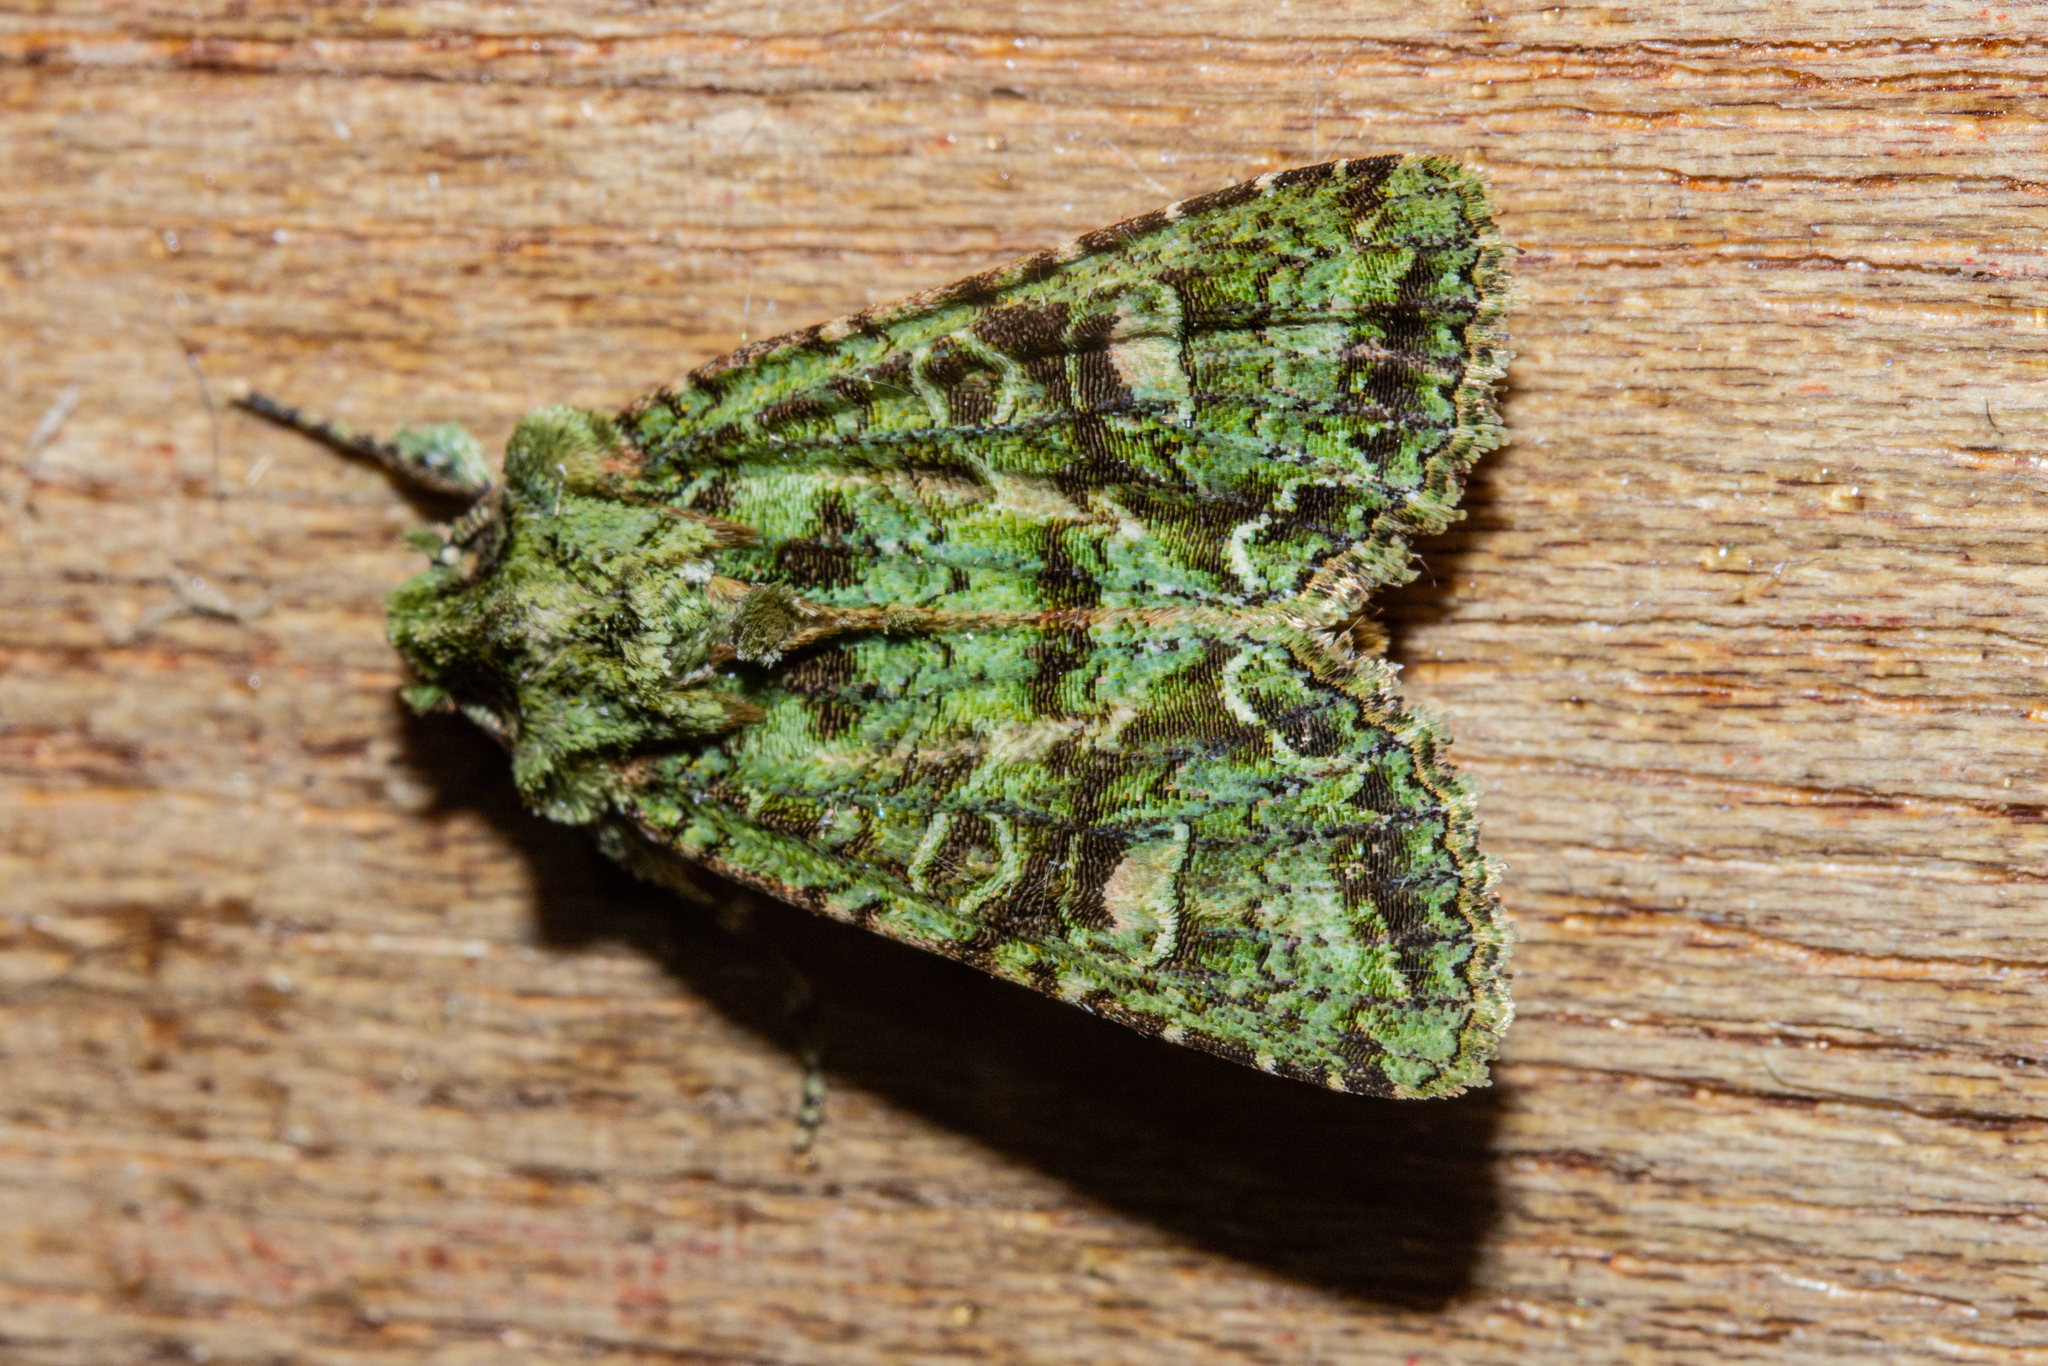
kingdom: Animalia
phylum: Arthropoda
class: Insecta
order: Lepidoptera
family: Noctuidae
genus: Ichneutica
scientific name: Ichneutica
